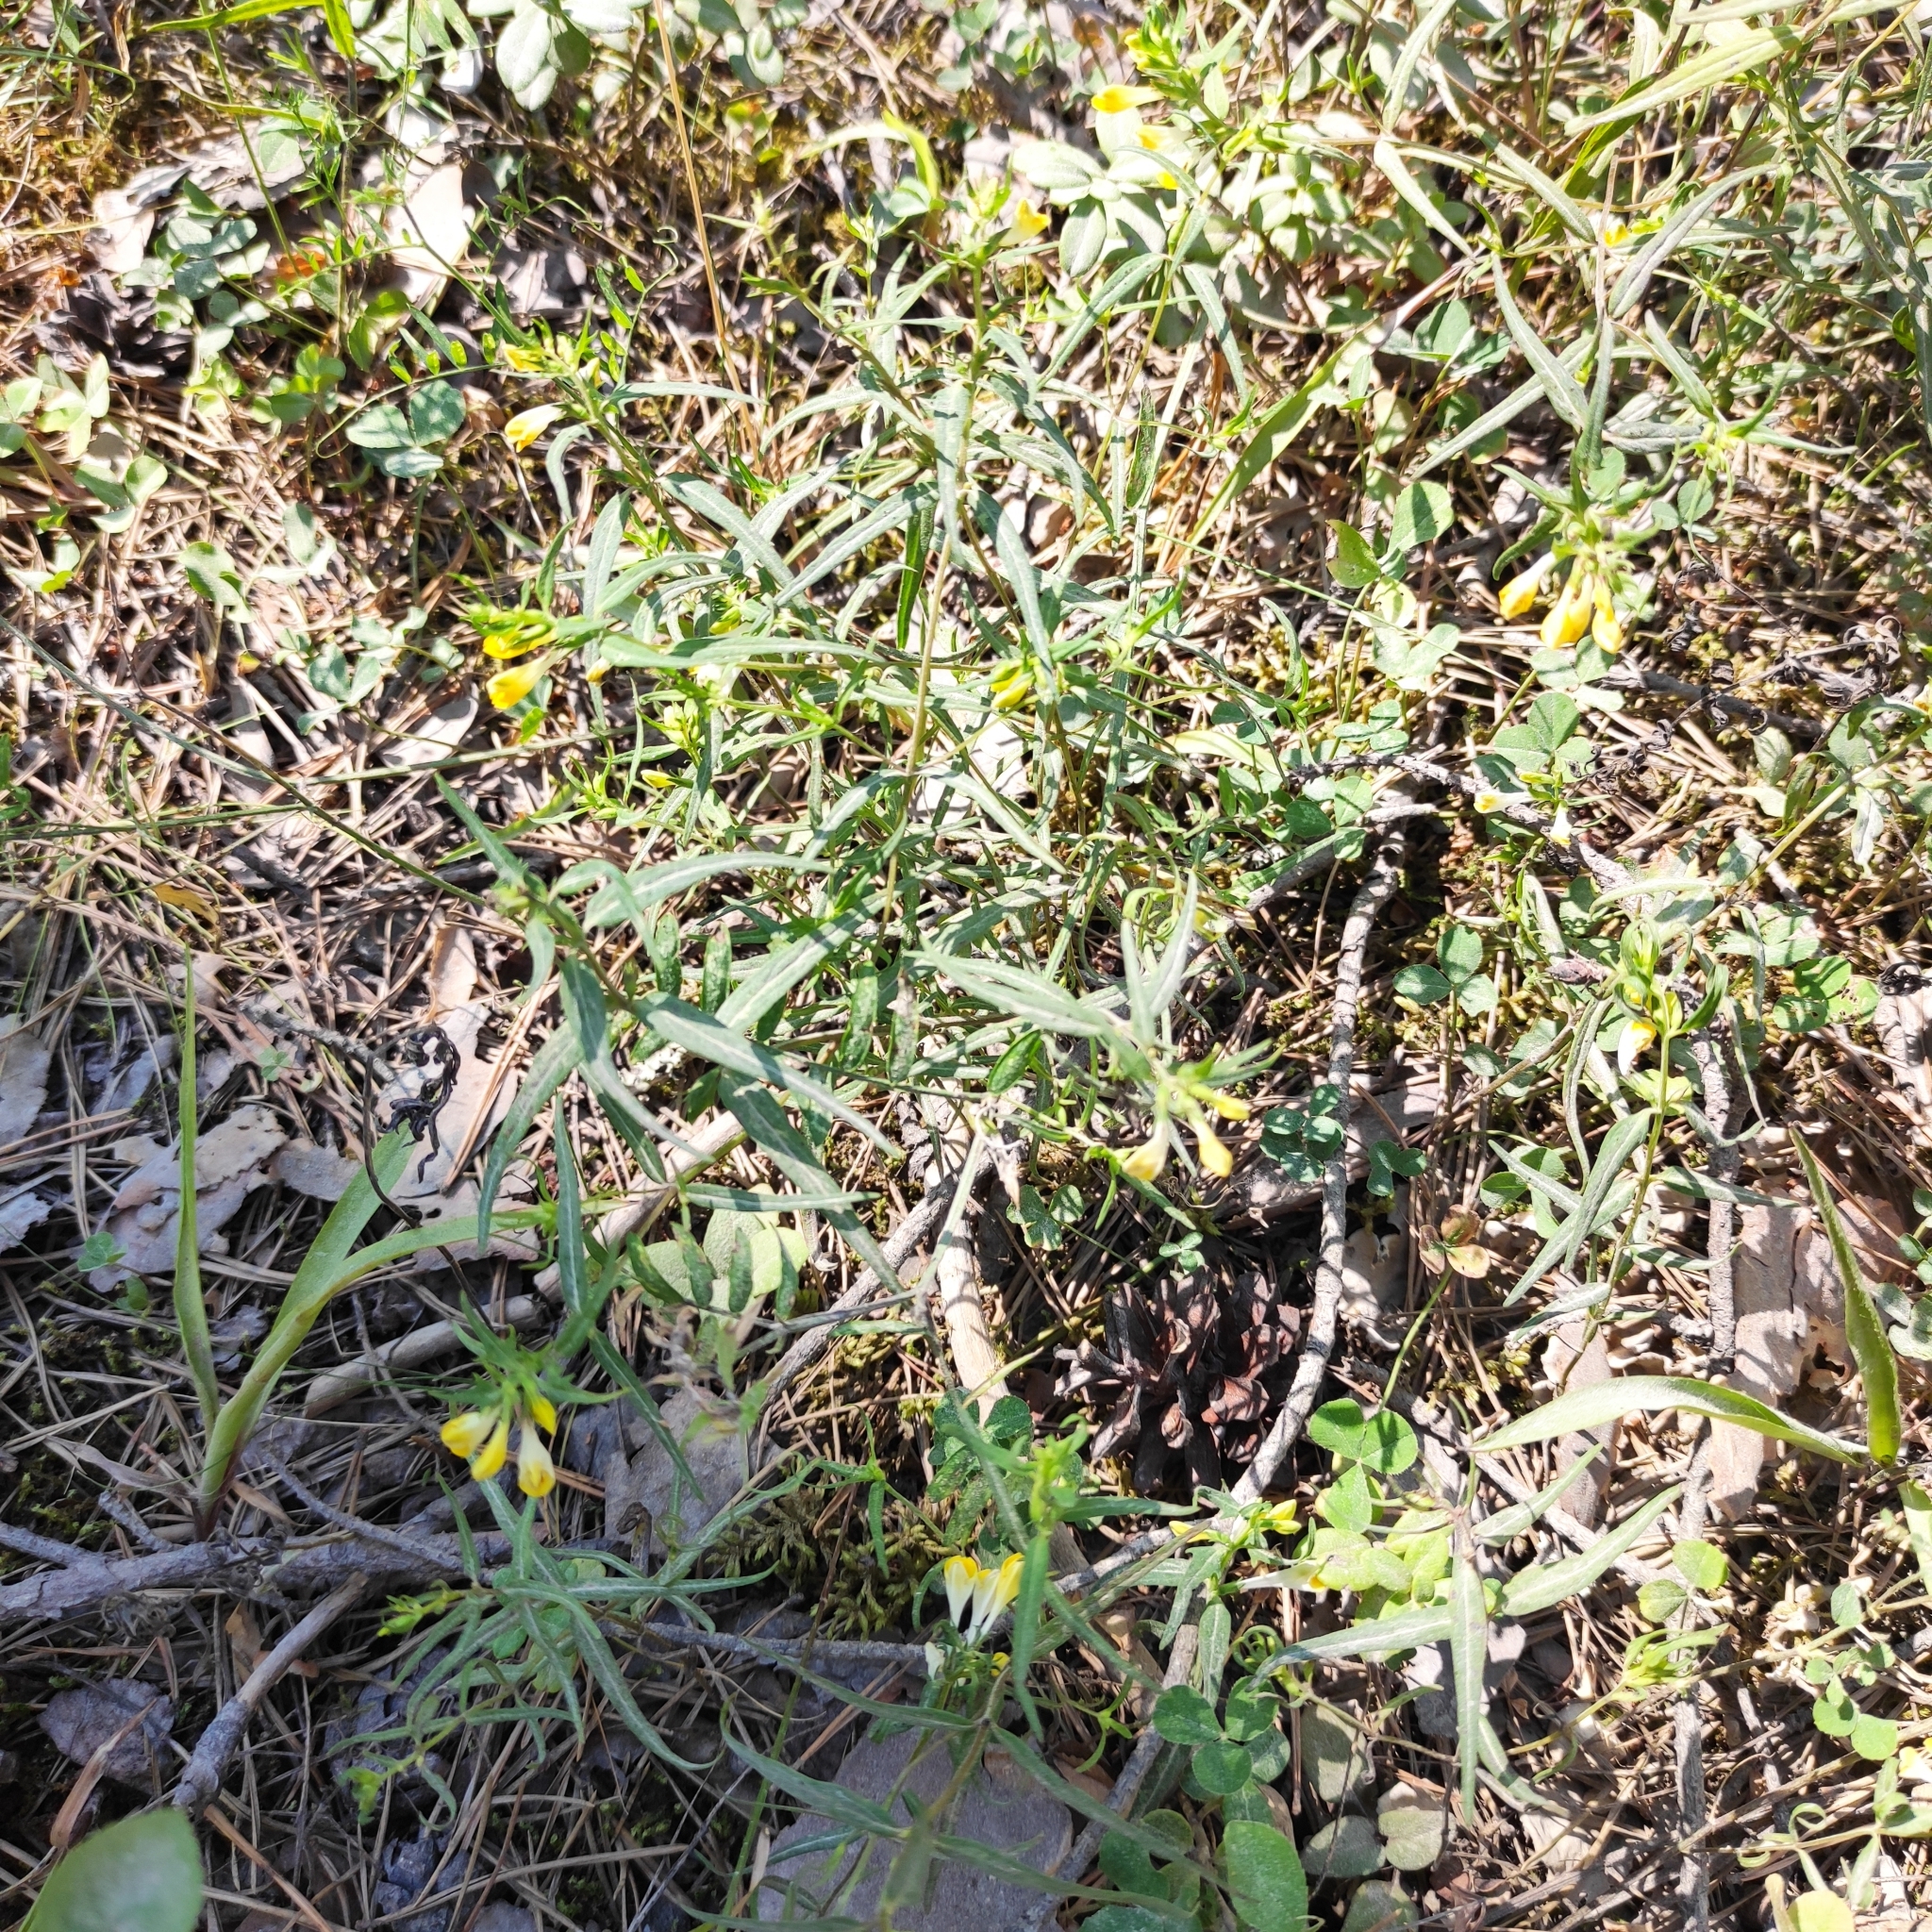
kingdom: Plantae
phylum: Tracheophyta
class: Magnoliopsida
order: Lamiales
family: Orobanchaceae
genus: Melampyrum
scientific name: Melampyrum pratense
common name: Common cow-wheat
